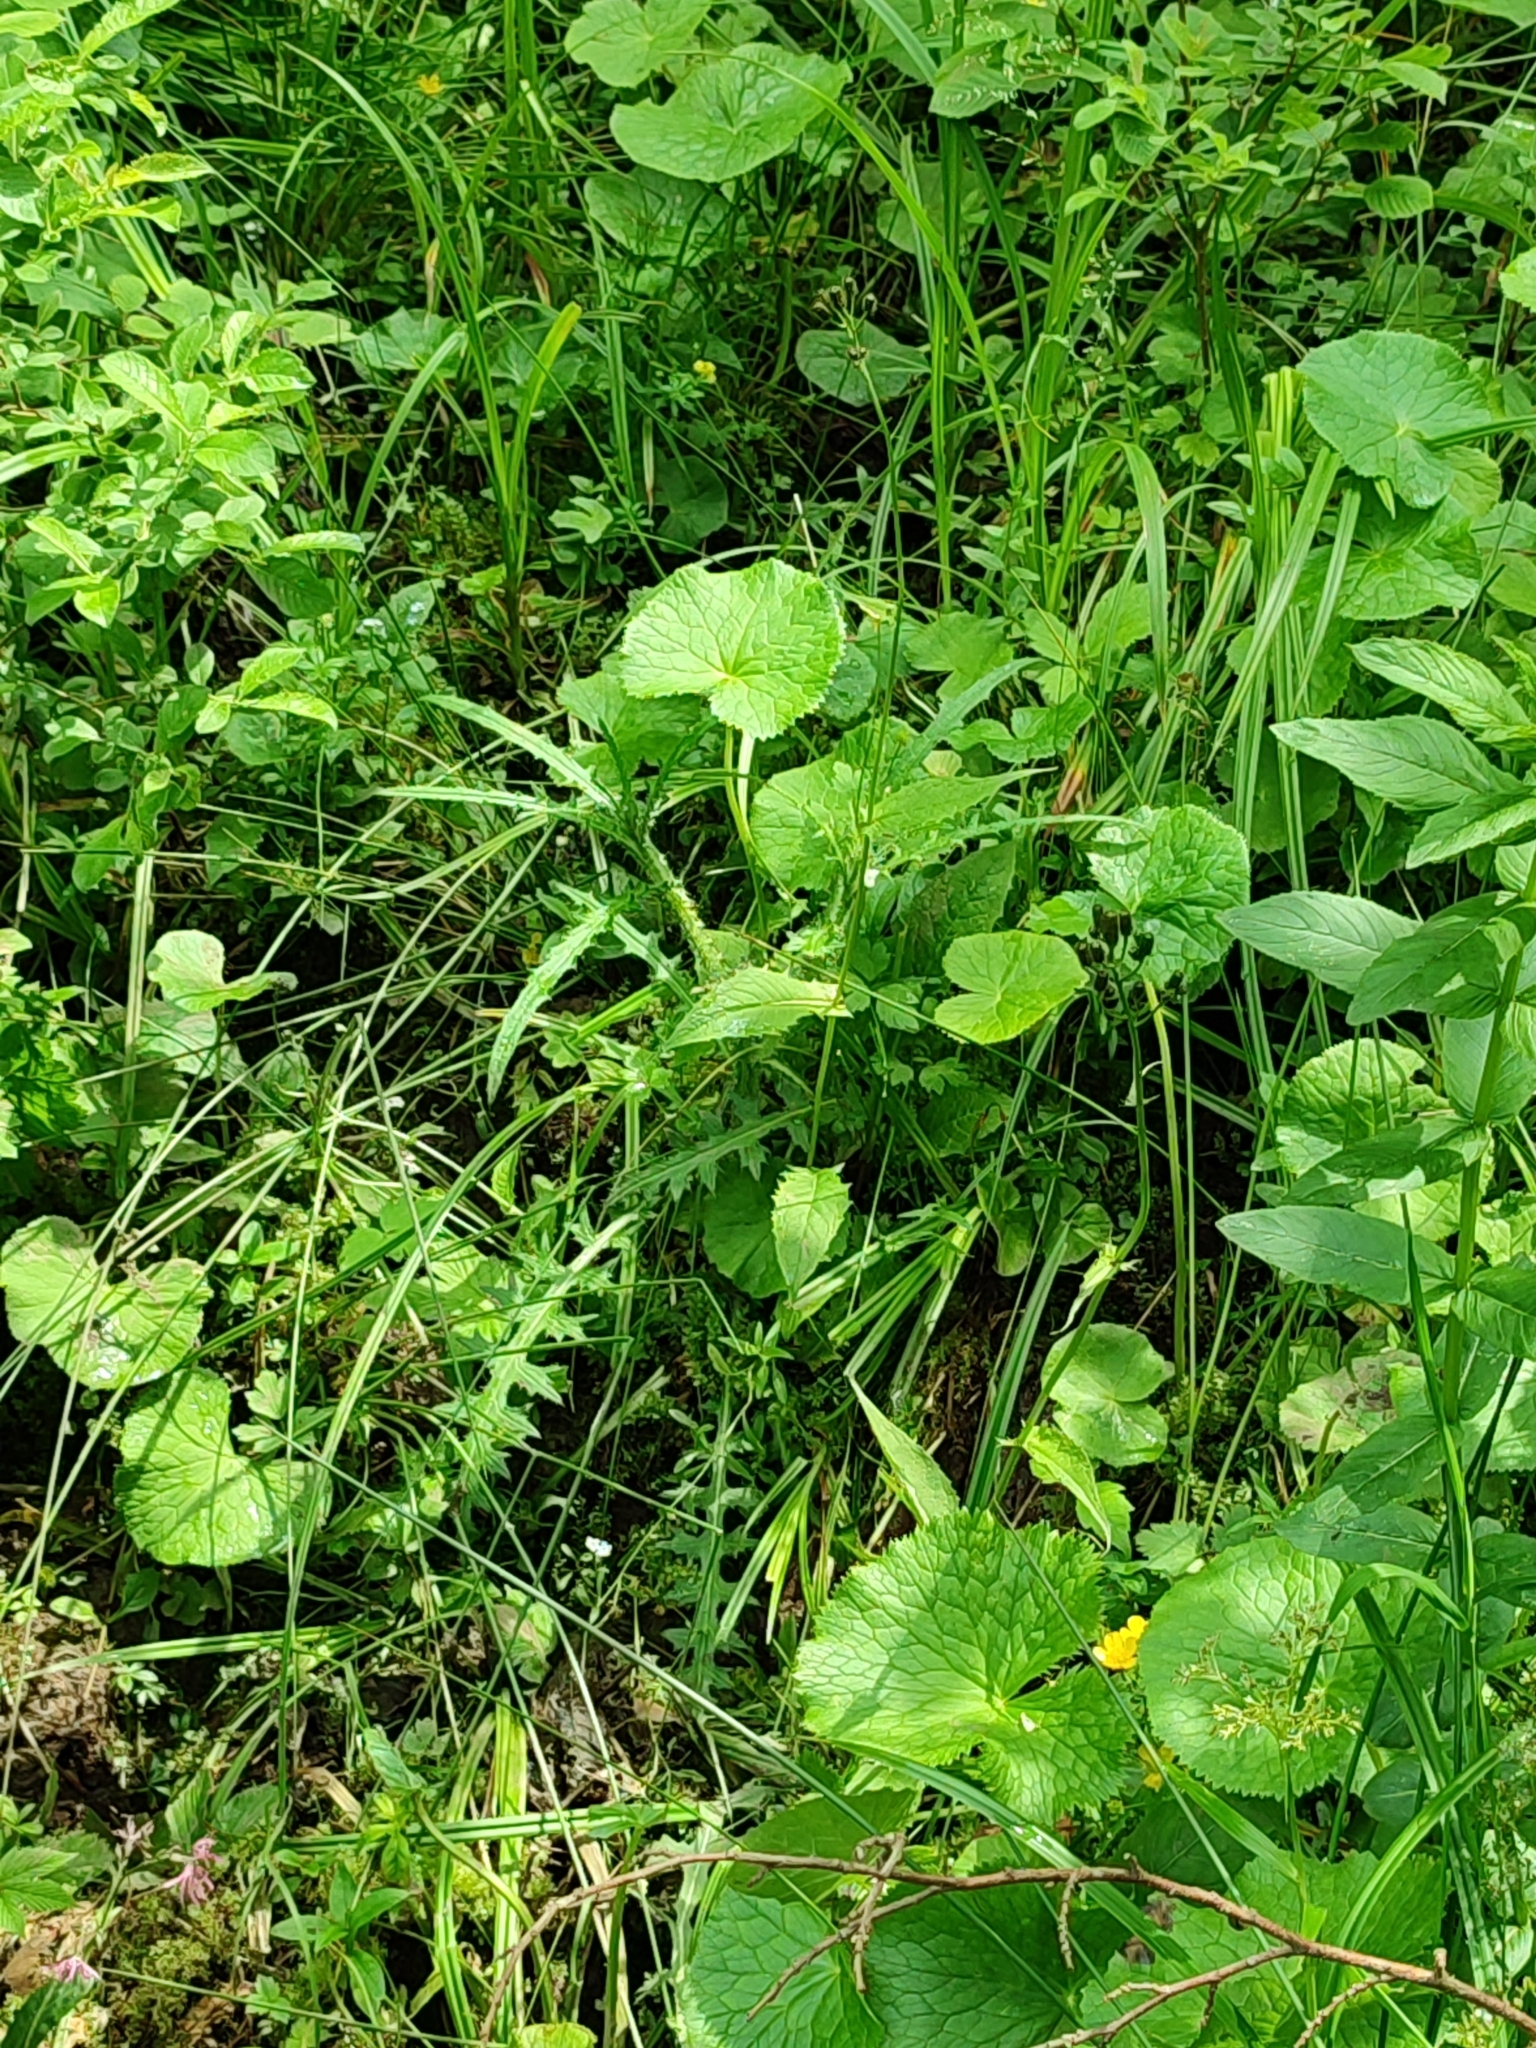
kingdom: Plantae
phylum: Tracheophyta
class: Magnoliopsida
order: Ranunculales
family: Ranunculaceae
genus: Caltha
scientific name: Caltha palustris
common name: Marsh marigold
